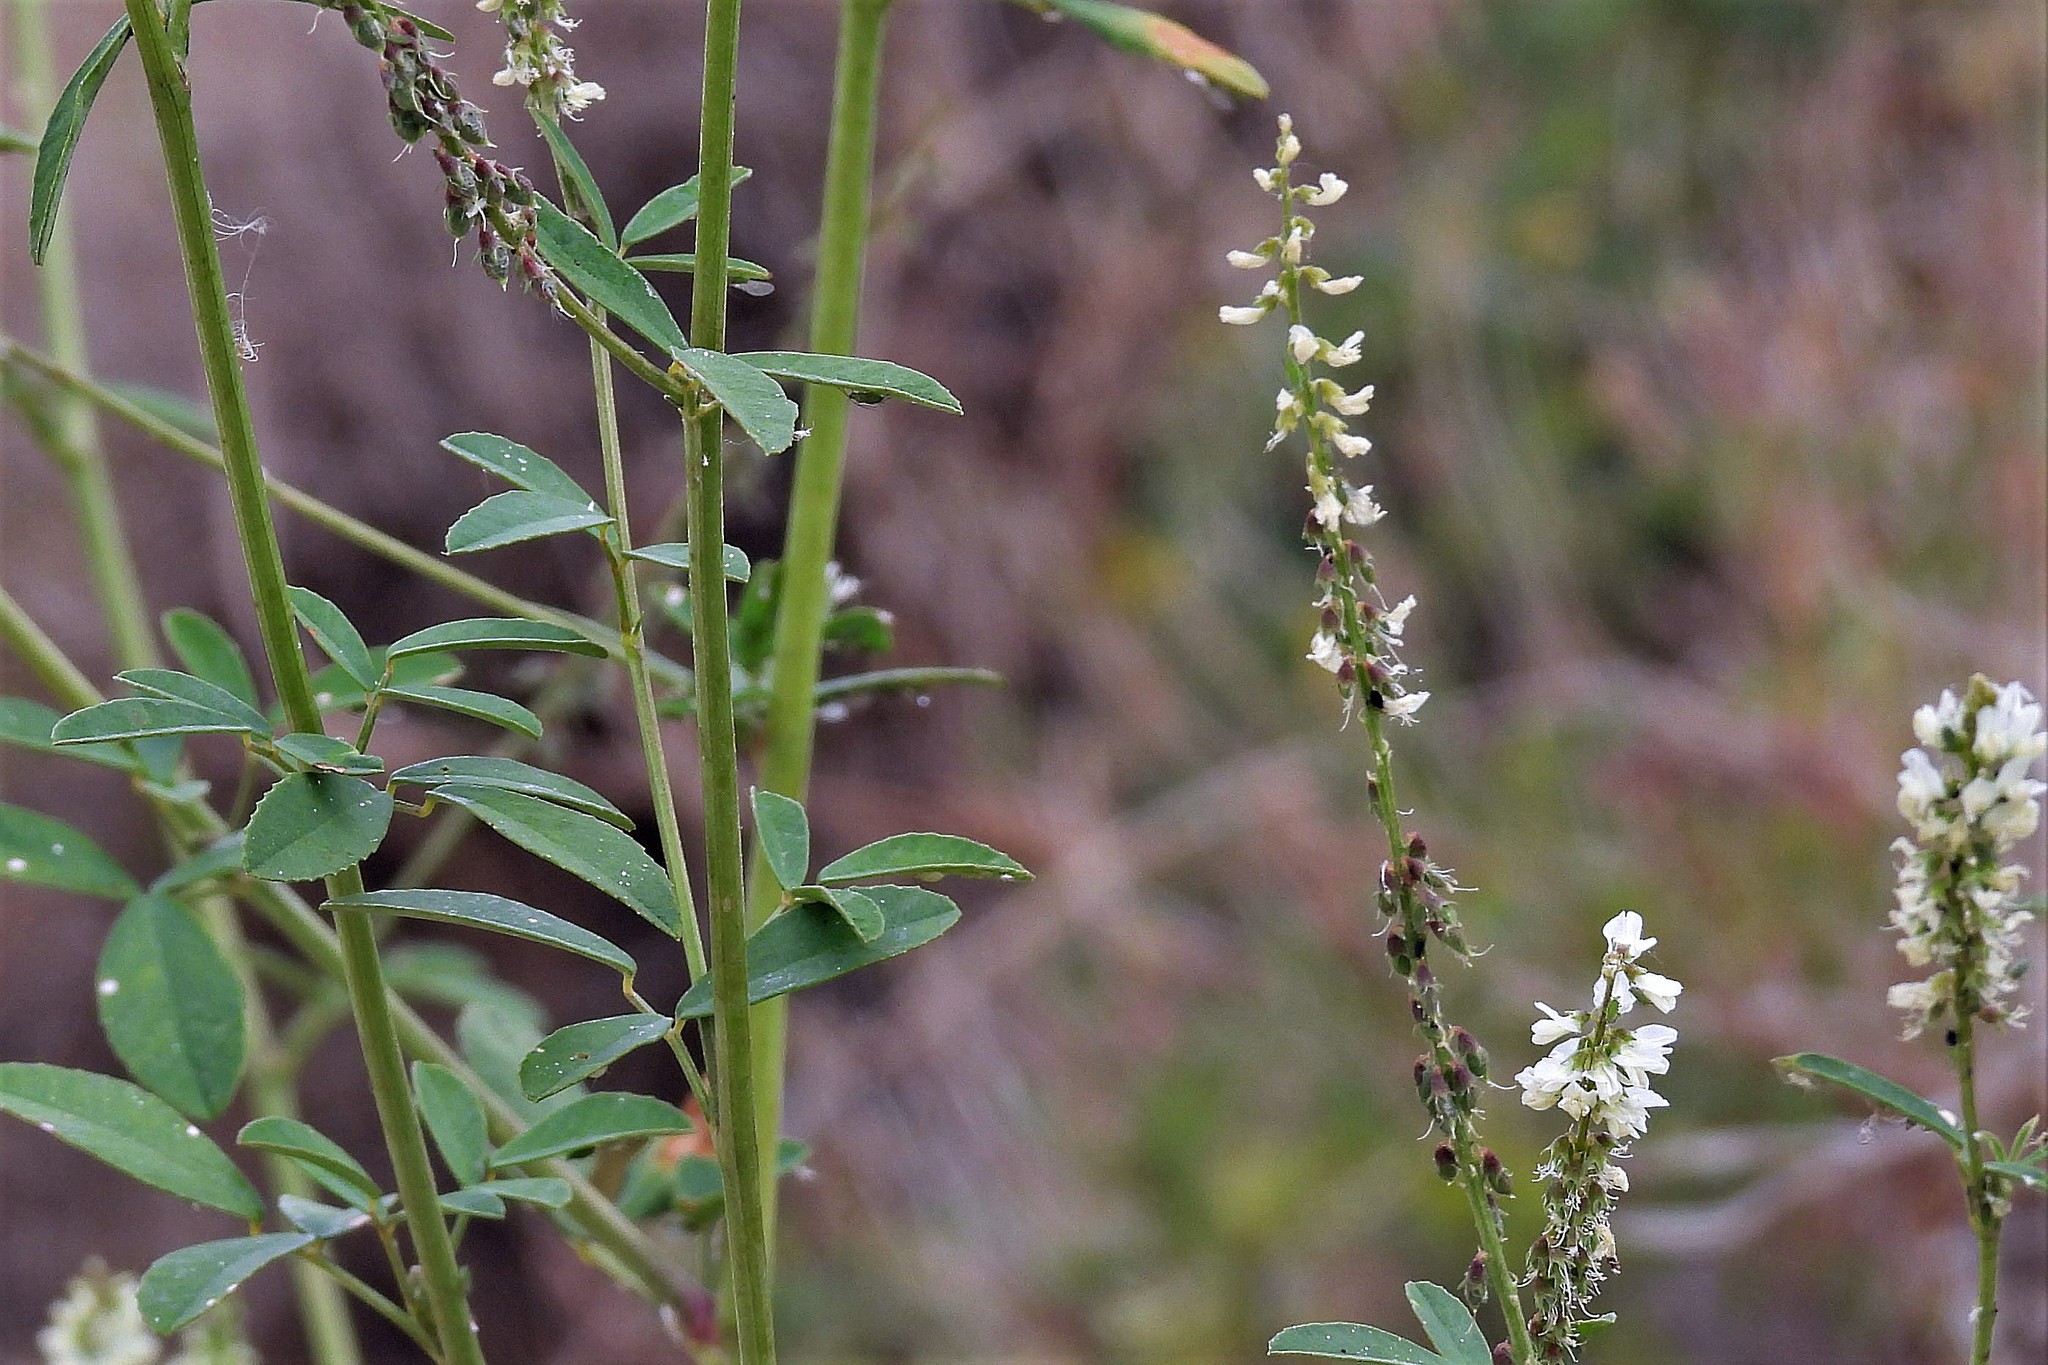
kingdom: Plantae
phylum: Tracheophyta
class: Magnoliopsida
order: Fabales
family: Fabaceae
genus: Melilotus
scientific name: Melilotus albus
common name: White melilot
